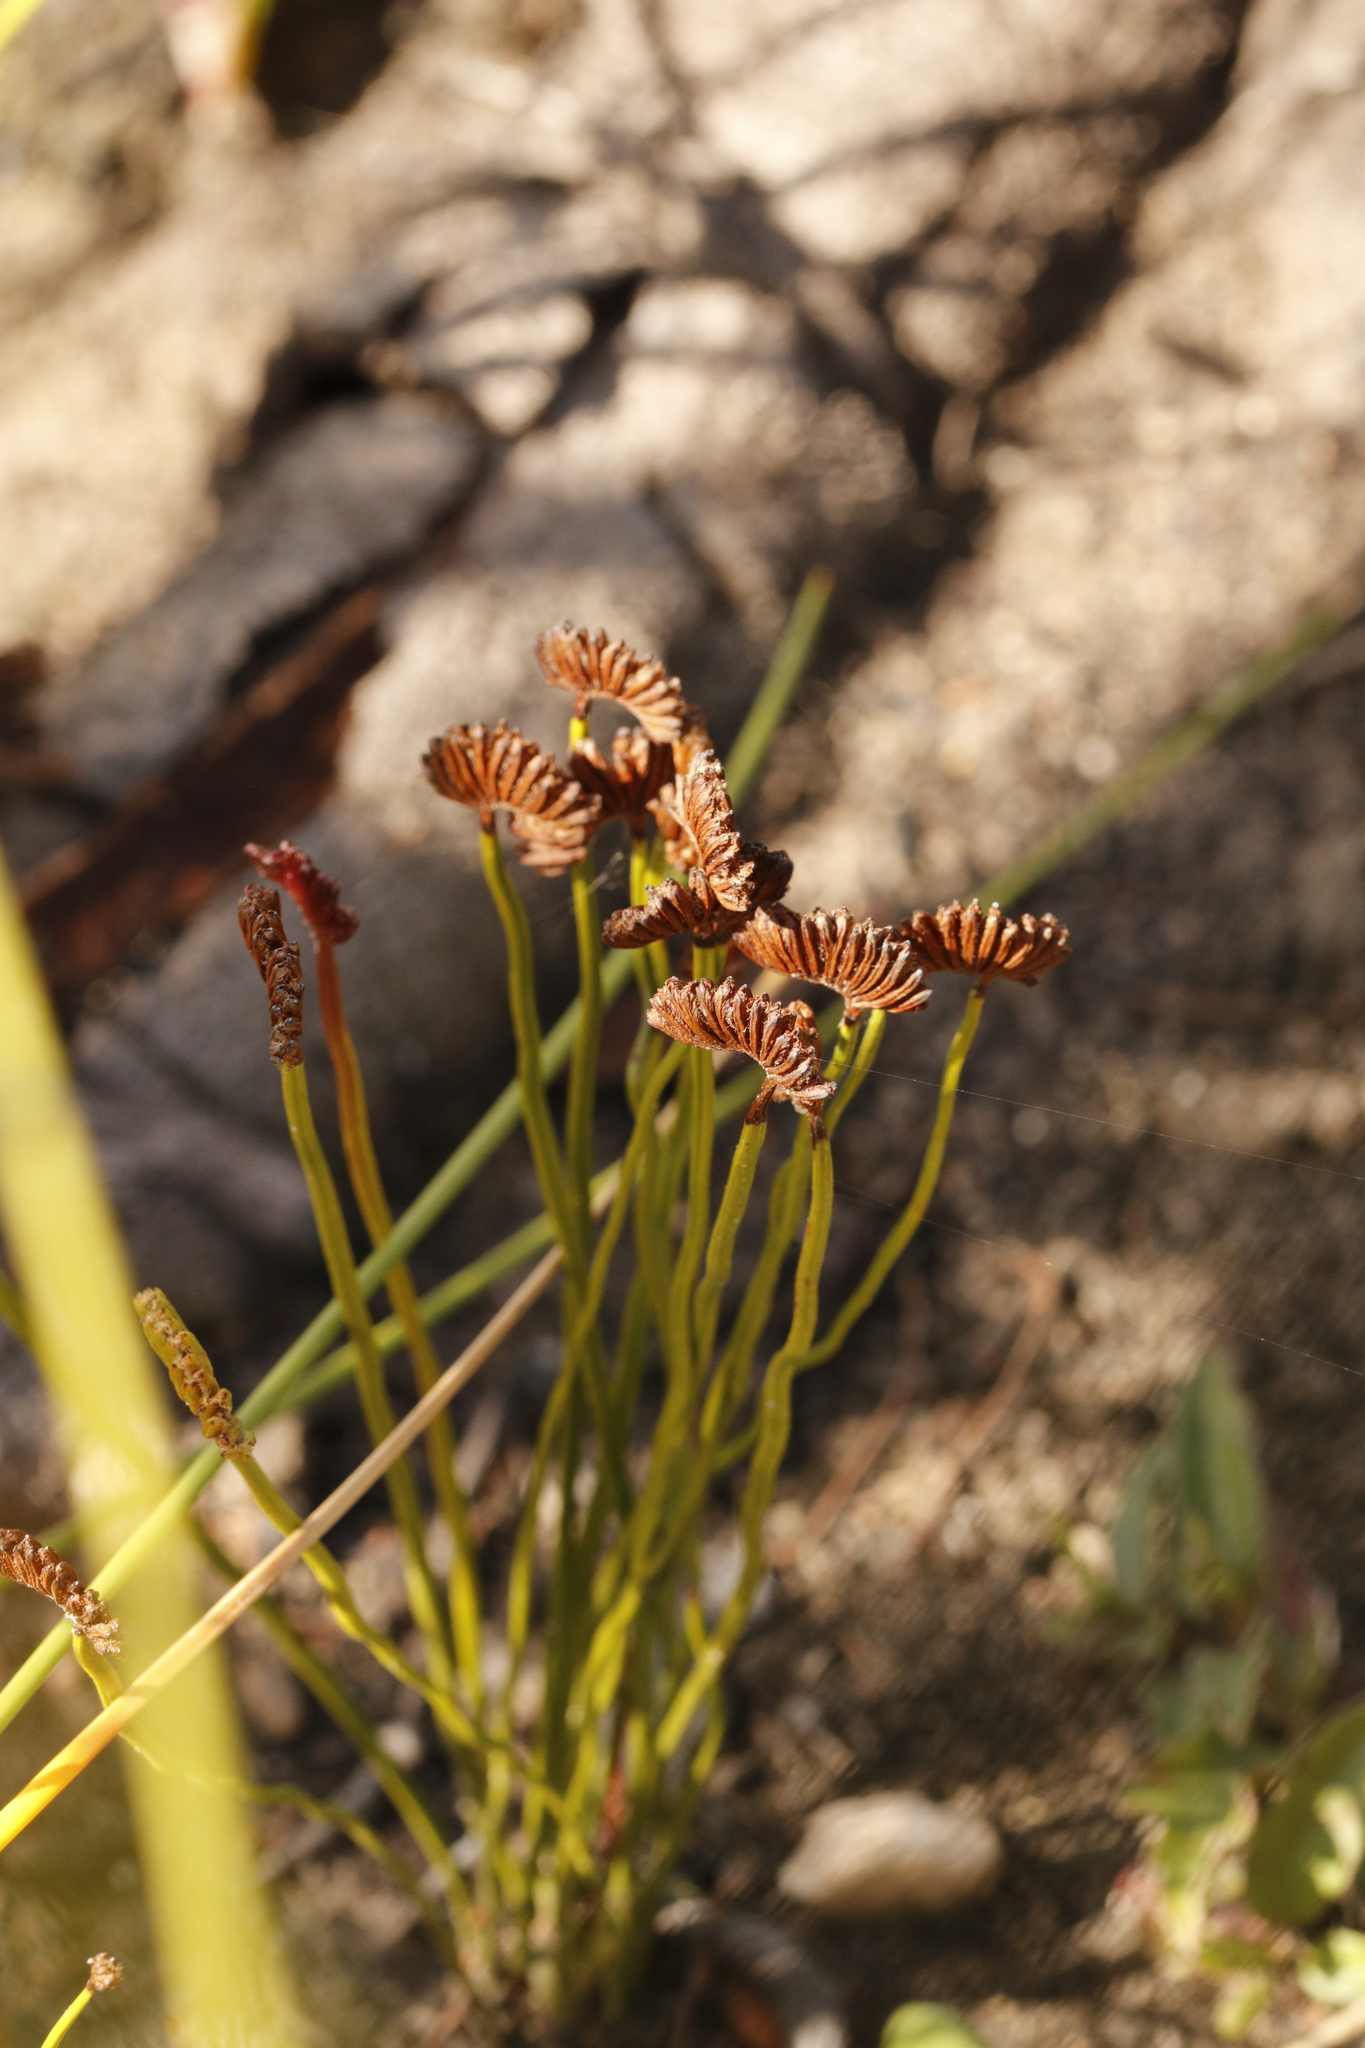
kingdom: Plantae
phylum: Tracheophyta
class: Polypodiopsida
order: Schizaeales
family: Schizaeaceae
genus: Schizaea
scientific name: Schizaea pectinata
